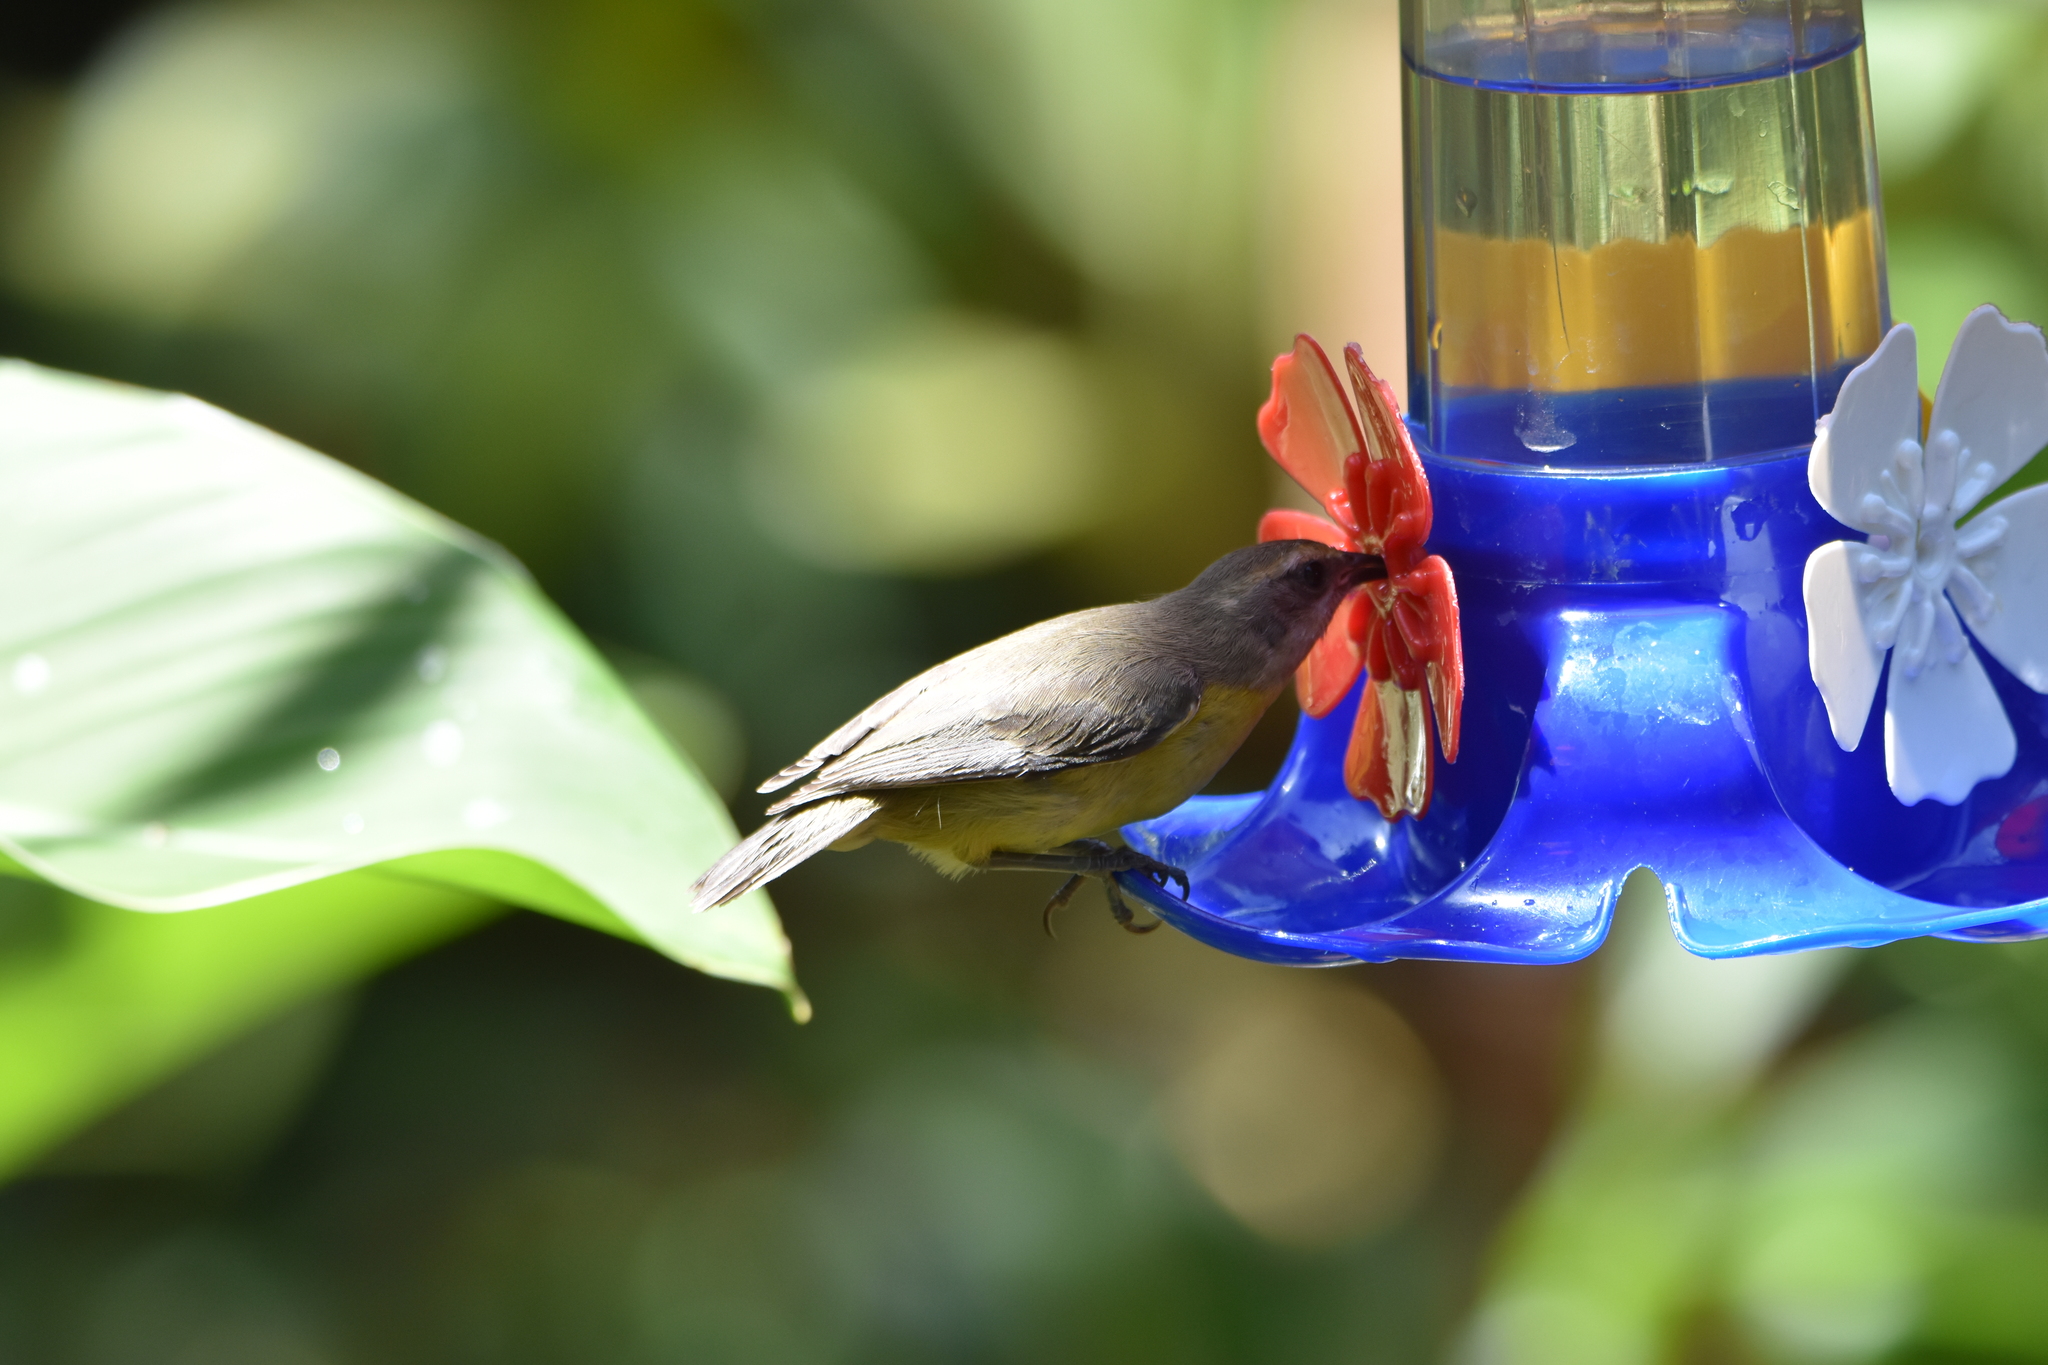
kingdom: Animalia
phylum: Chordata
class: Aves
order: Passeriformes
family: Thraupidae
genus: Coereba
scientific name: Coereba flaveola
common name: Bananaquit
